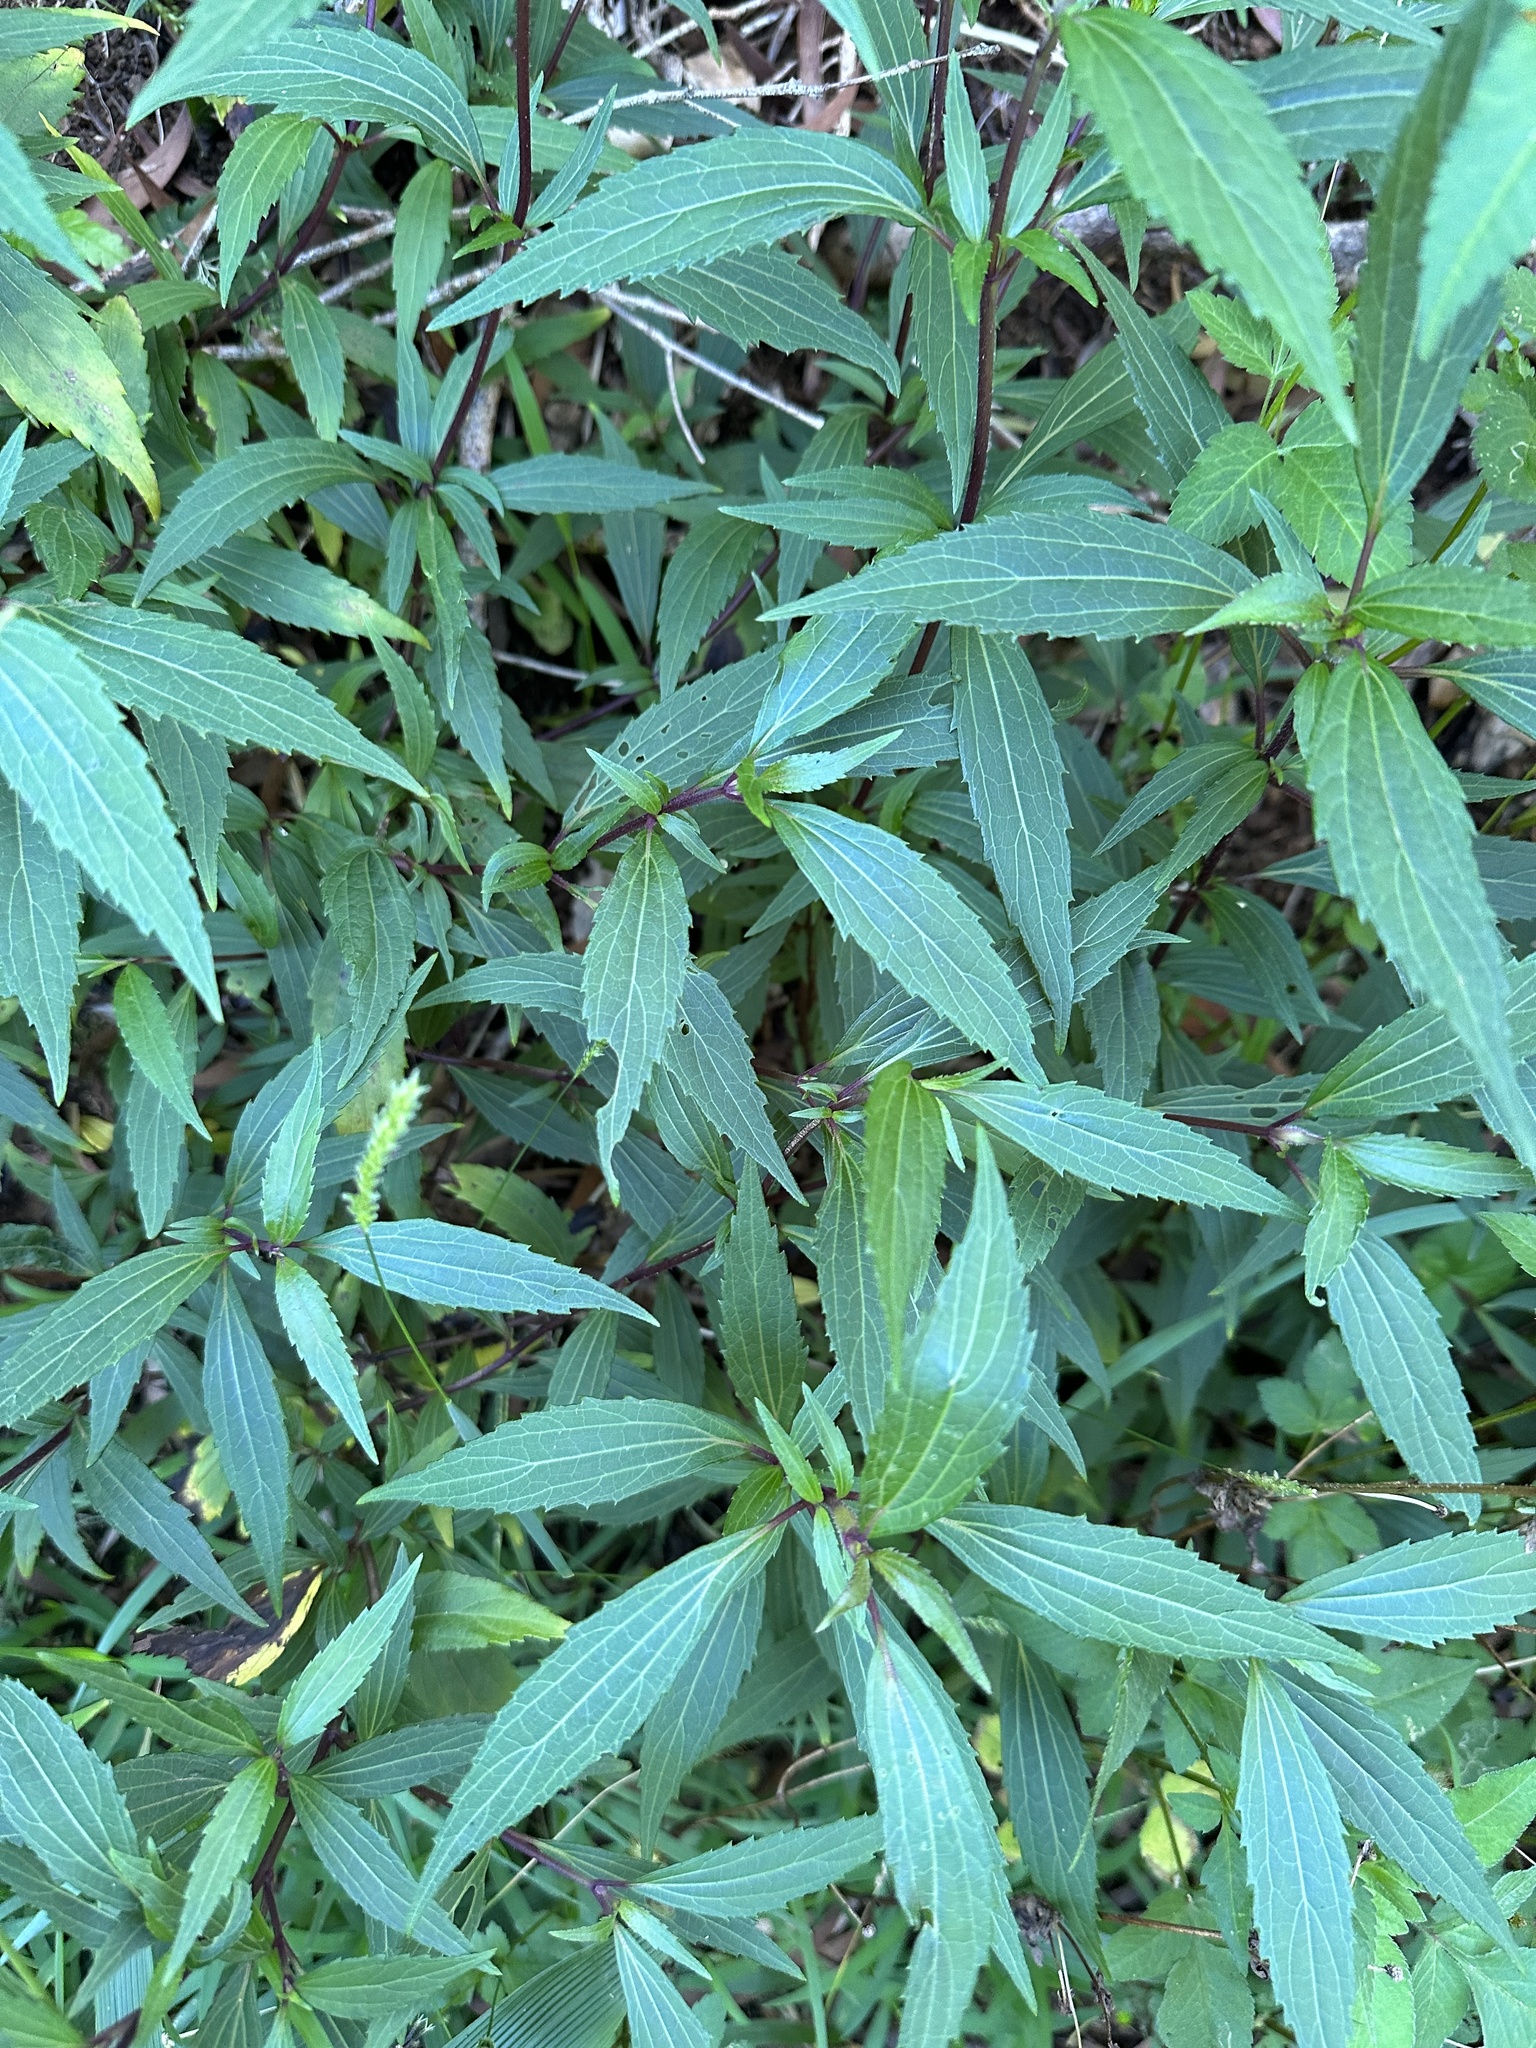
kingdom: Plantae
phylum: Tracheophyta
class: Magnoliopsida
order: Asterales
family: Asteraceae
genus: Ageratina
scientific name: Ageratina riparia
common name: Creeping croftonweed
